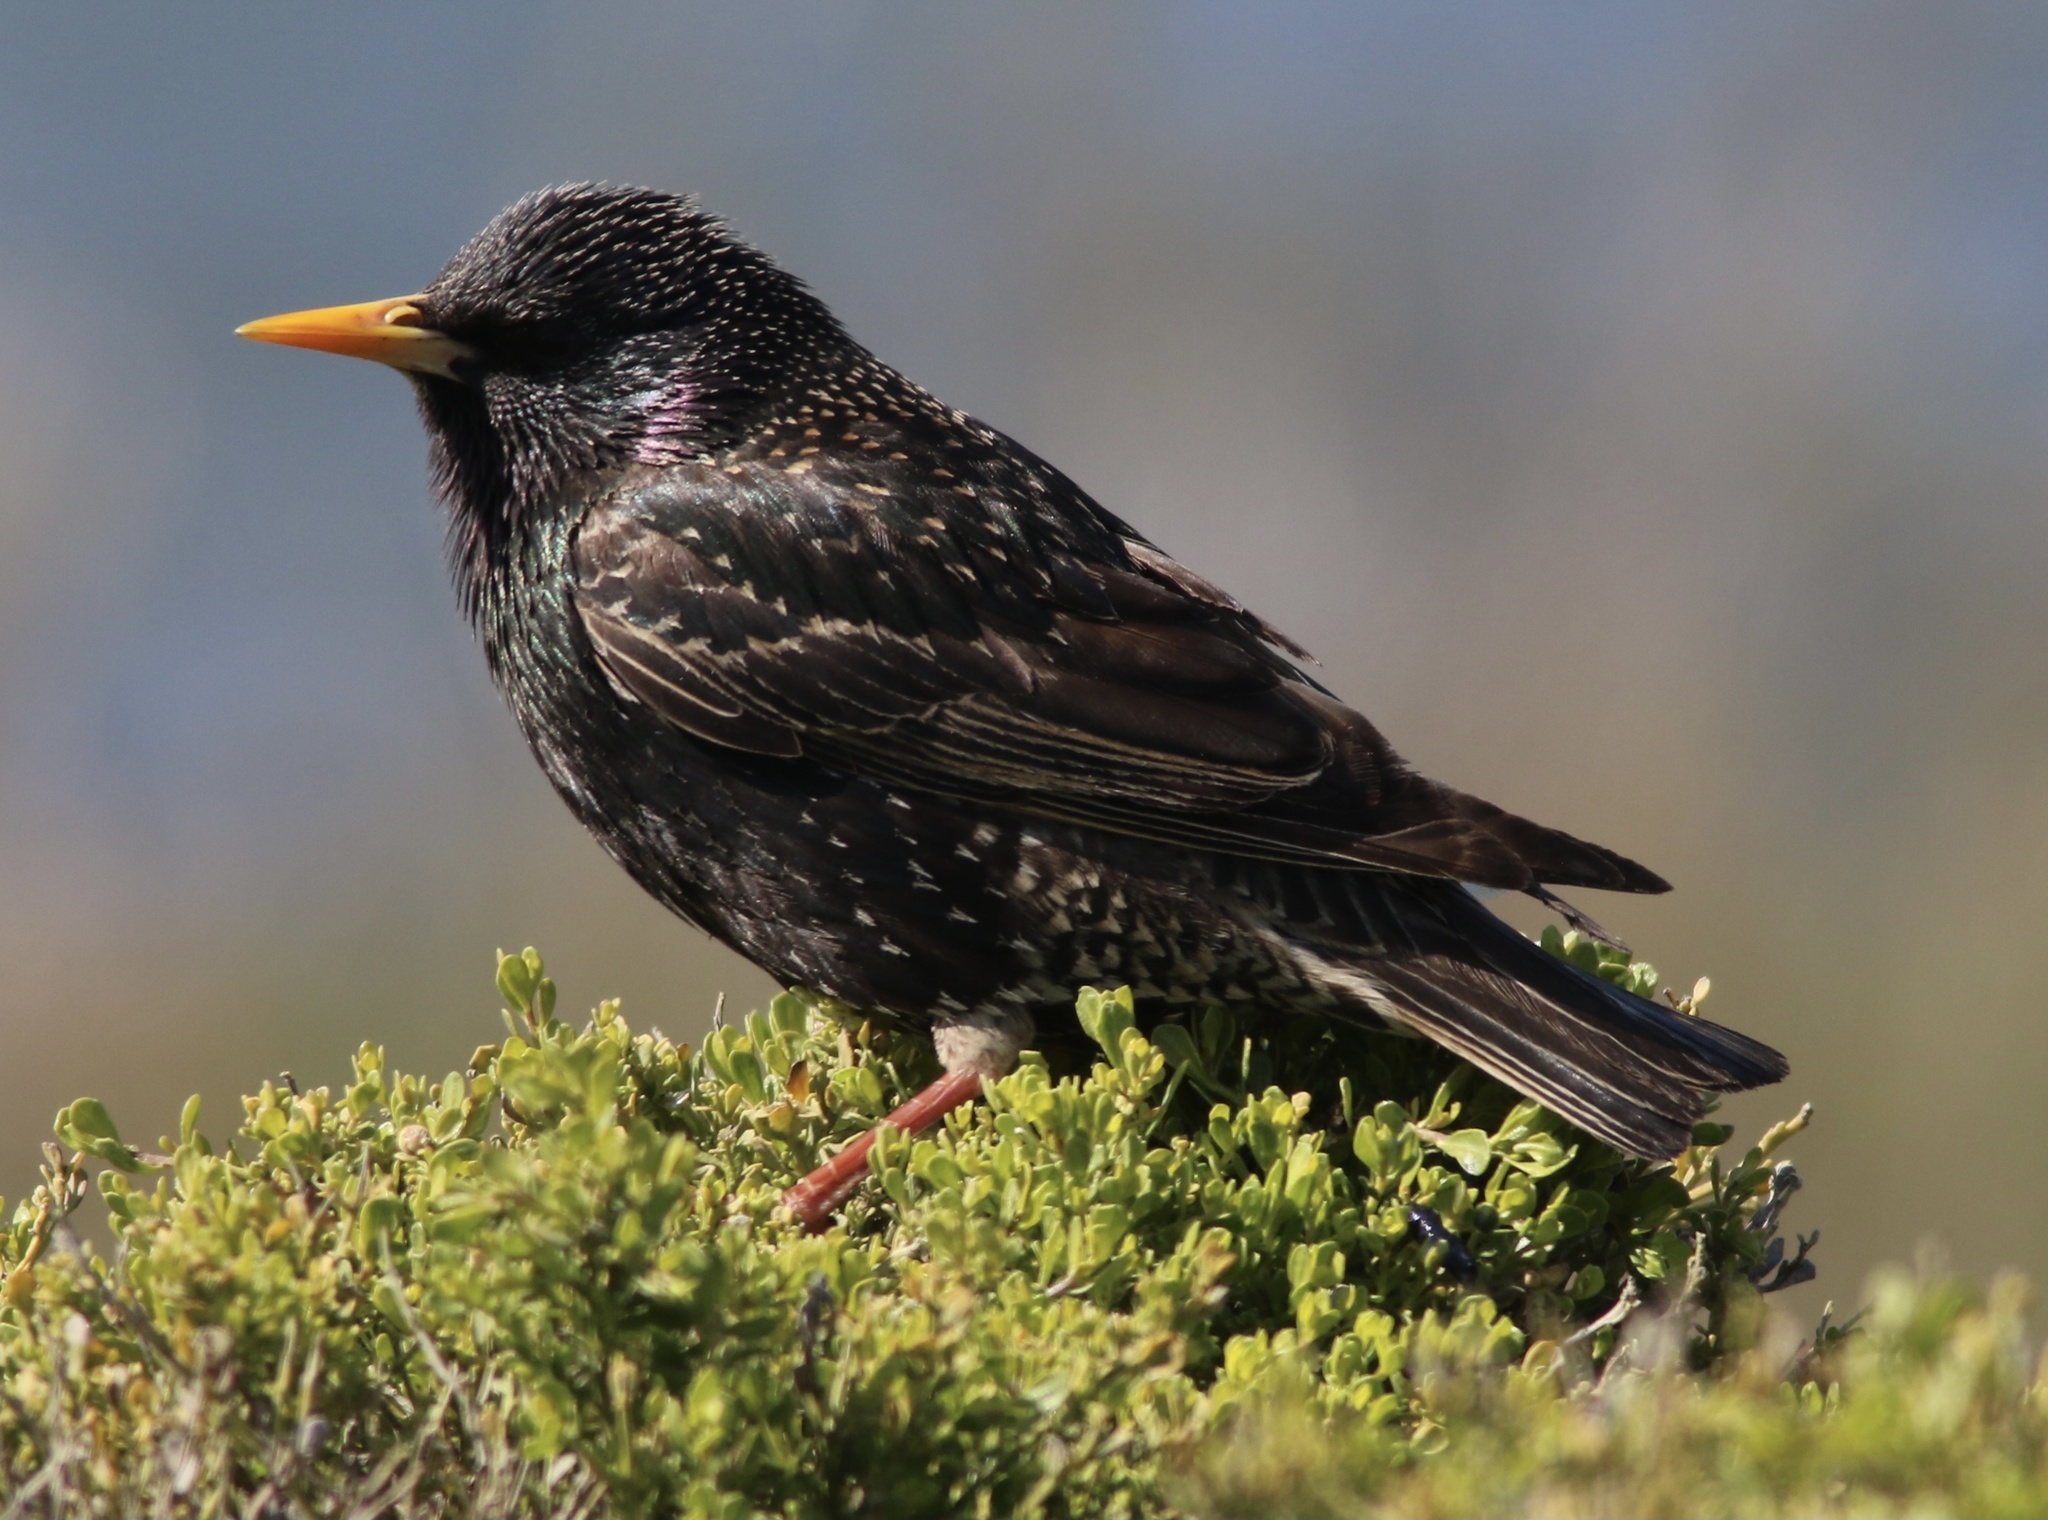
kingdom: Animalia
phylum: Chordata
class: Aves
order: Passeriformes
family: Sturnidae
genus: Sturnus
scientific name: Sturnus vulgaris
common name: Common starling
